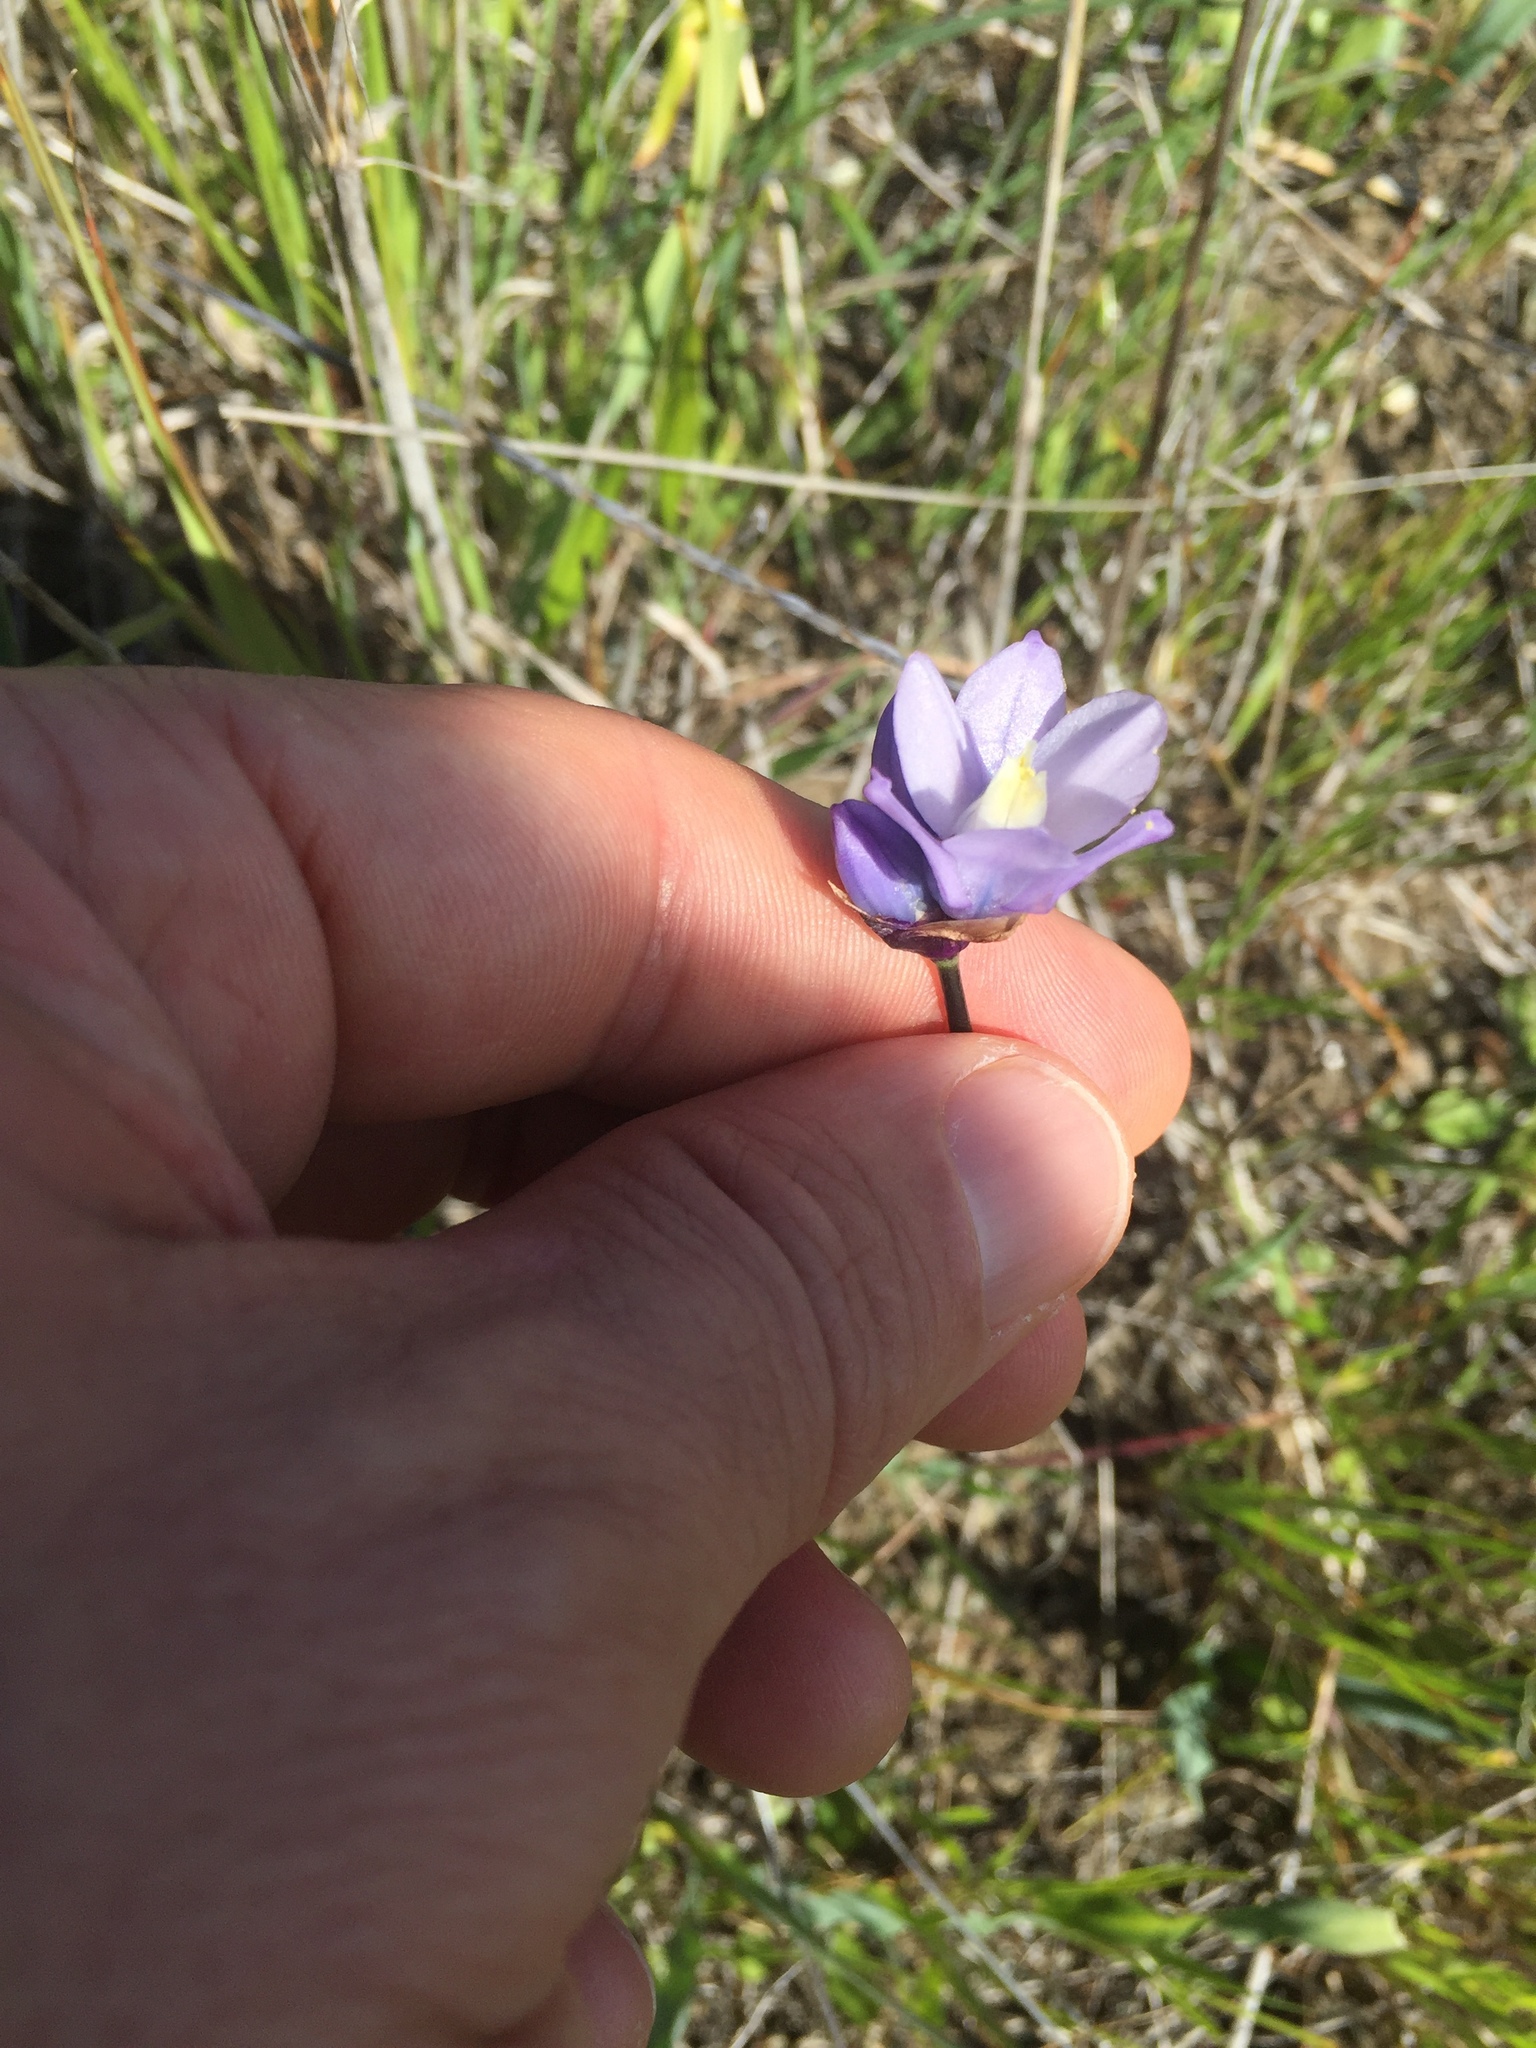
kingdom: Plantae
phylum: Tracheophyta
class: Liliopsida
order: Asparagales
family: Asparagaceae
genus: Dipterostemon
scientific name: Dipterostemon capitatus
